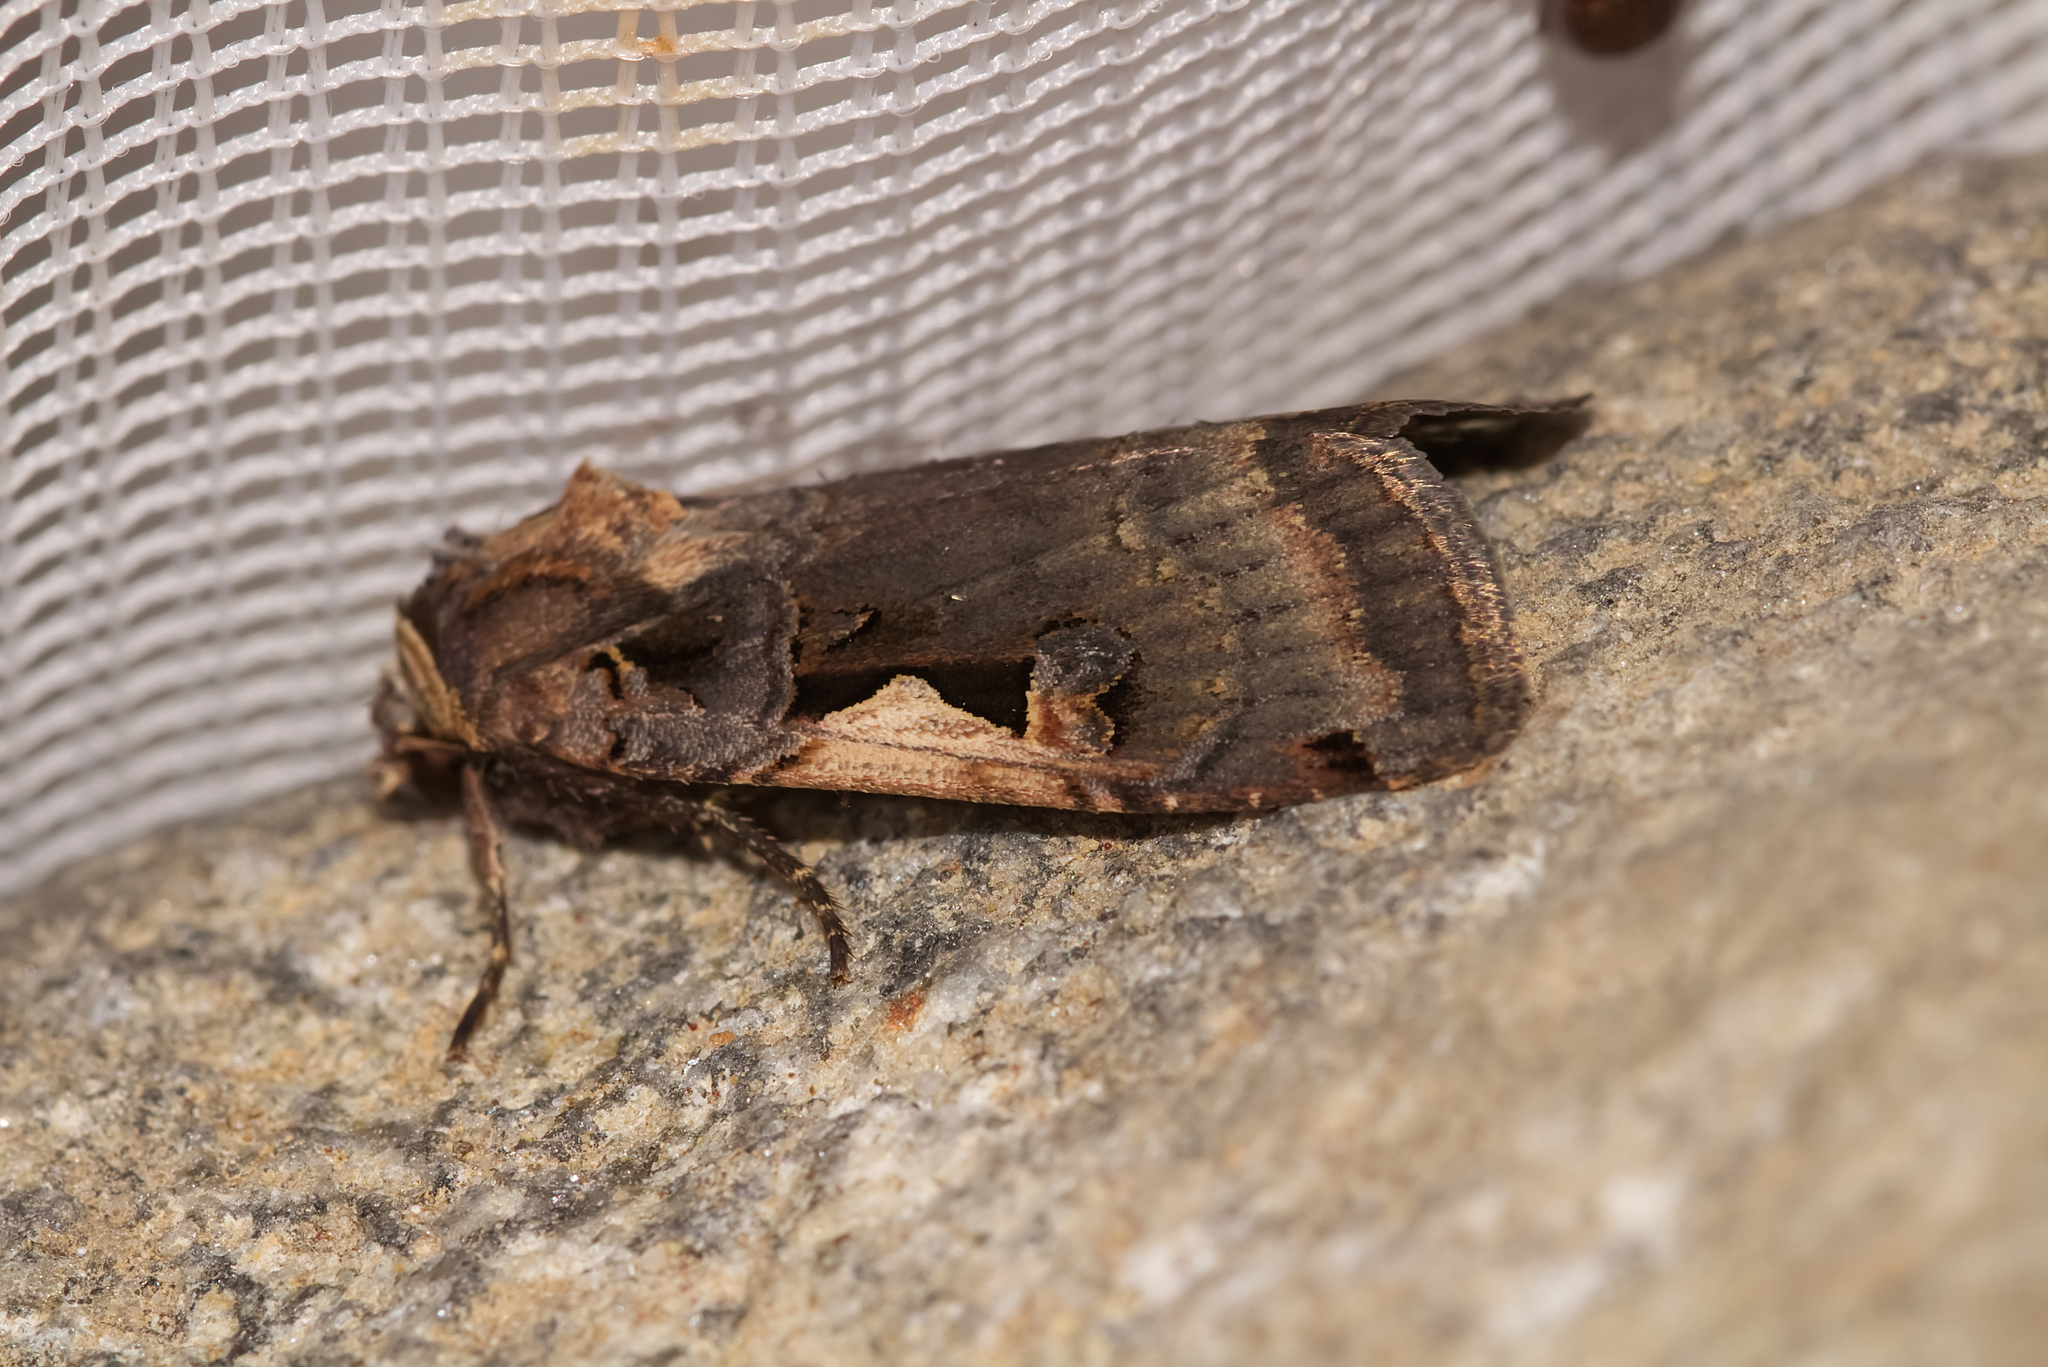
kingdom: Animalia
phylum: Arthropoda
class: Insecta
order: Lepidoptera
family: Noctuidae
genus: Xestia
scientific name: Xestia c-nigrum
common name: Setaceous hebrew character
